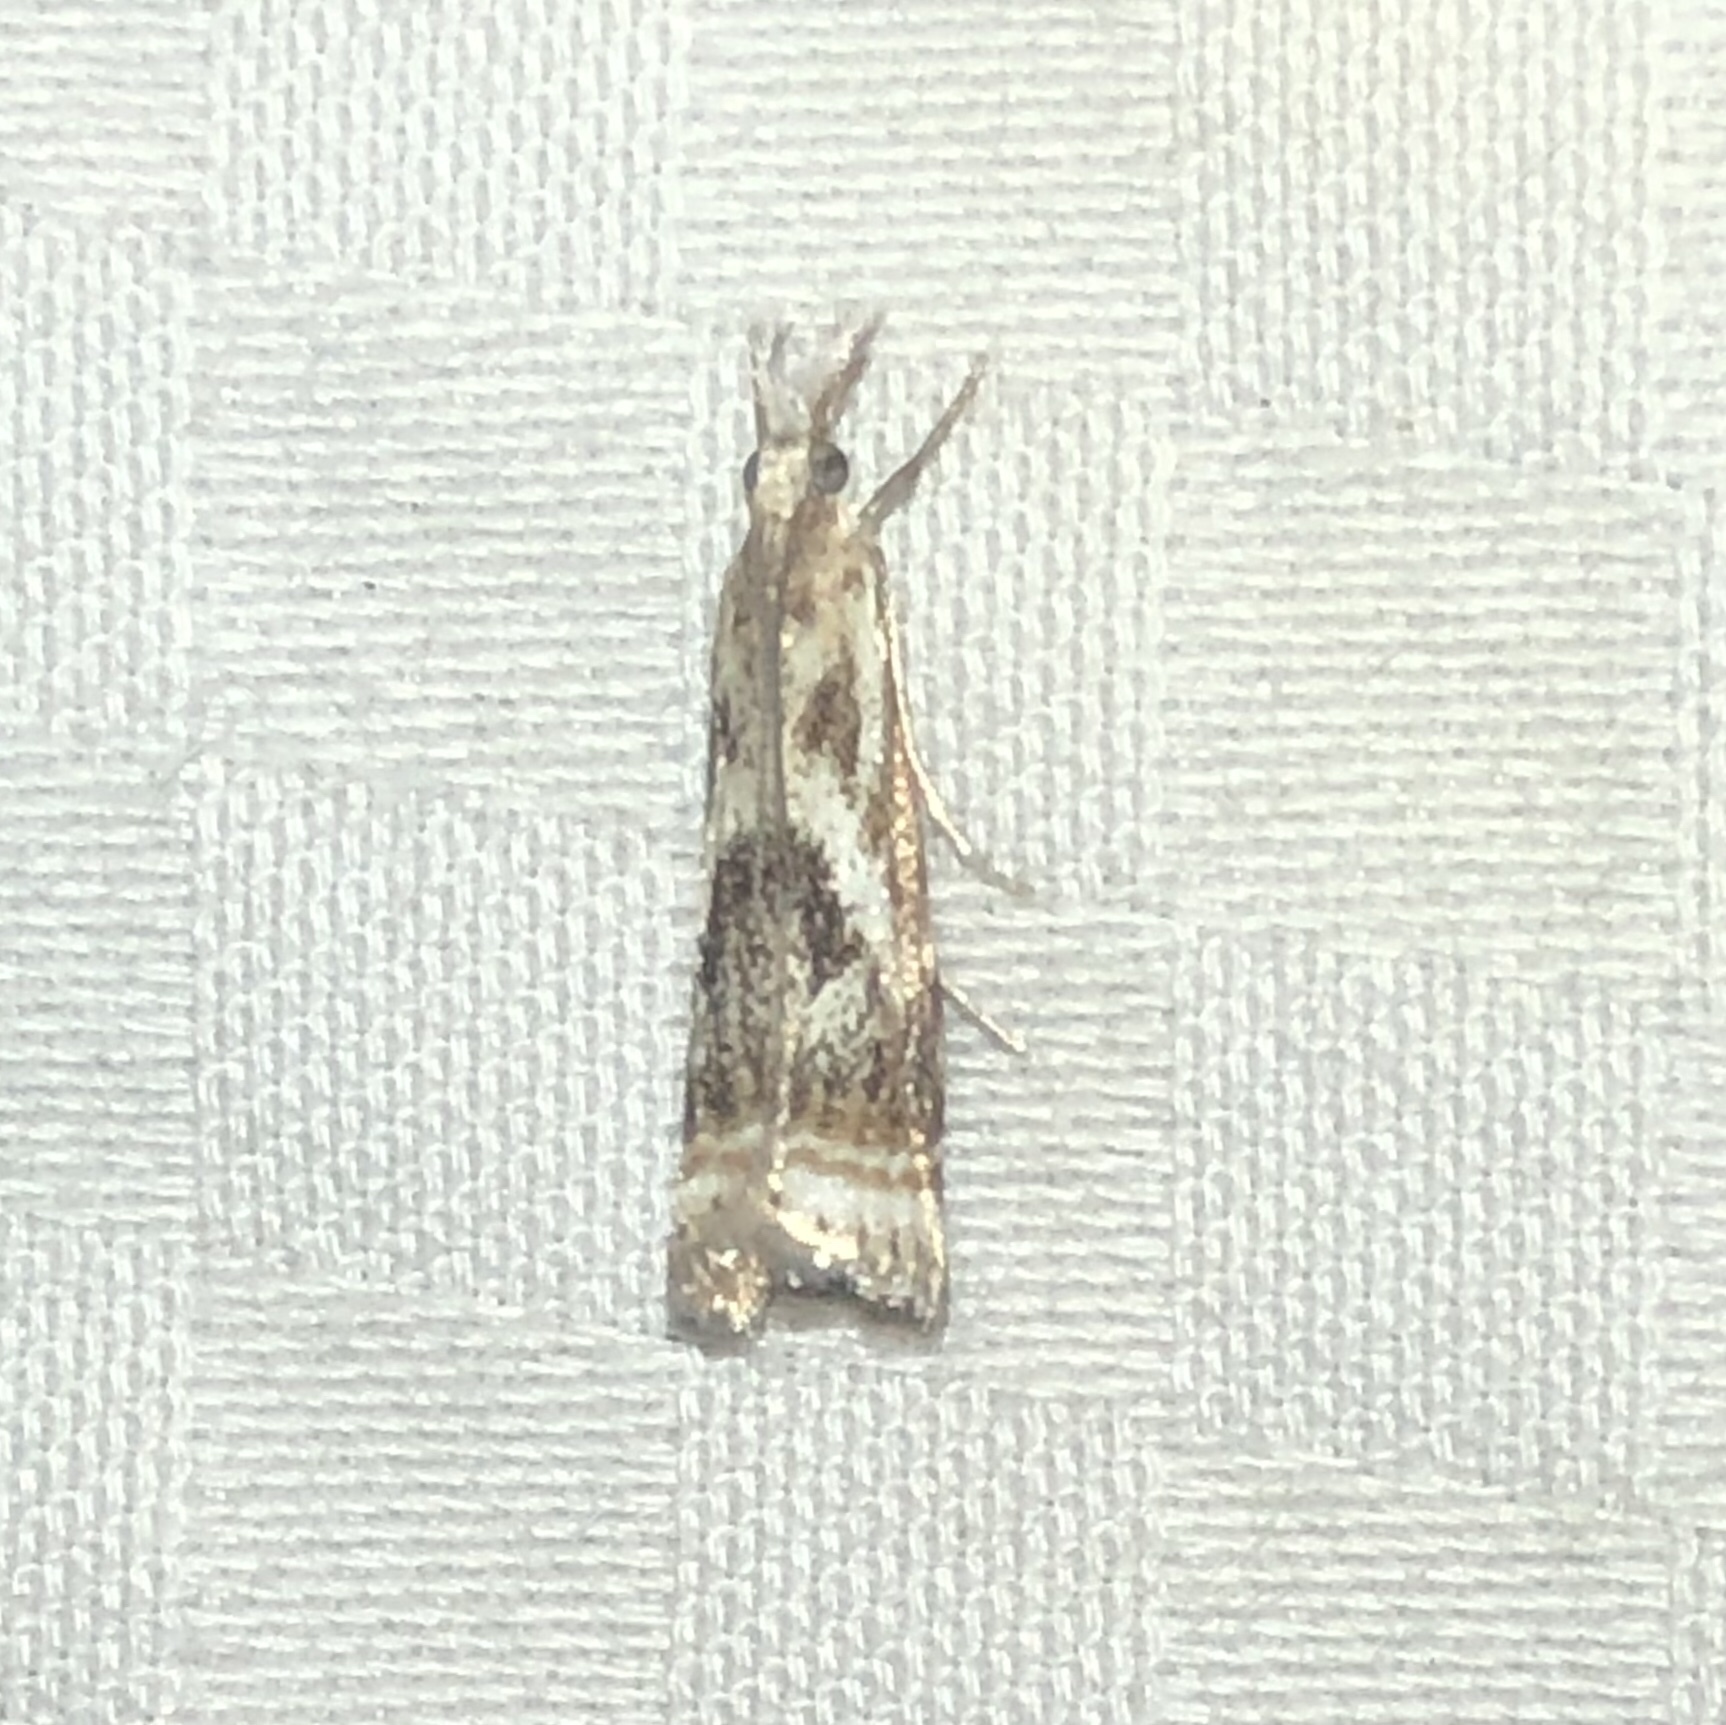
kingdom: Animalia
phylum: Arthropoda
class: Insecta
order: Lepidoptera
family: Crambidae
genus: Microcrambus
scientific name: Microcrambus elegans
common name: Elegant grass-veneer
